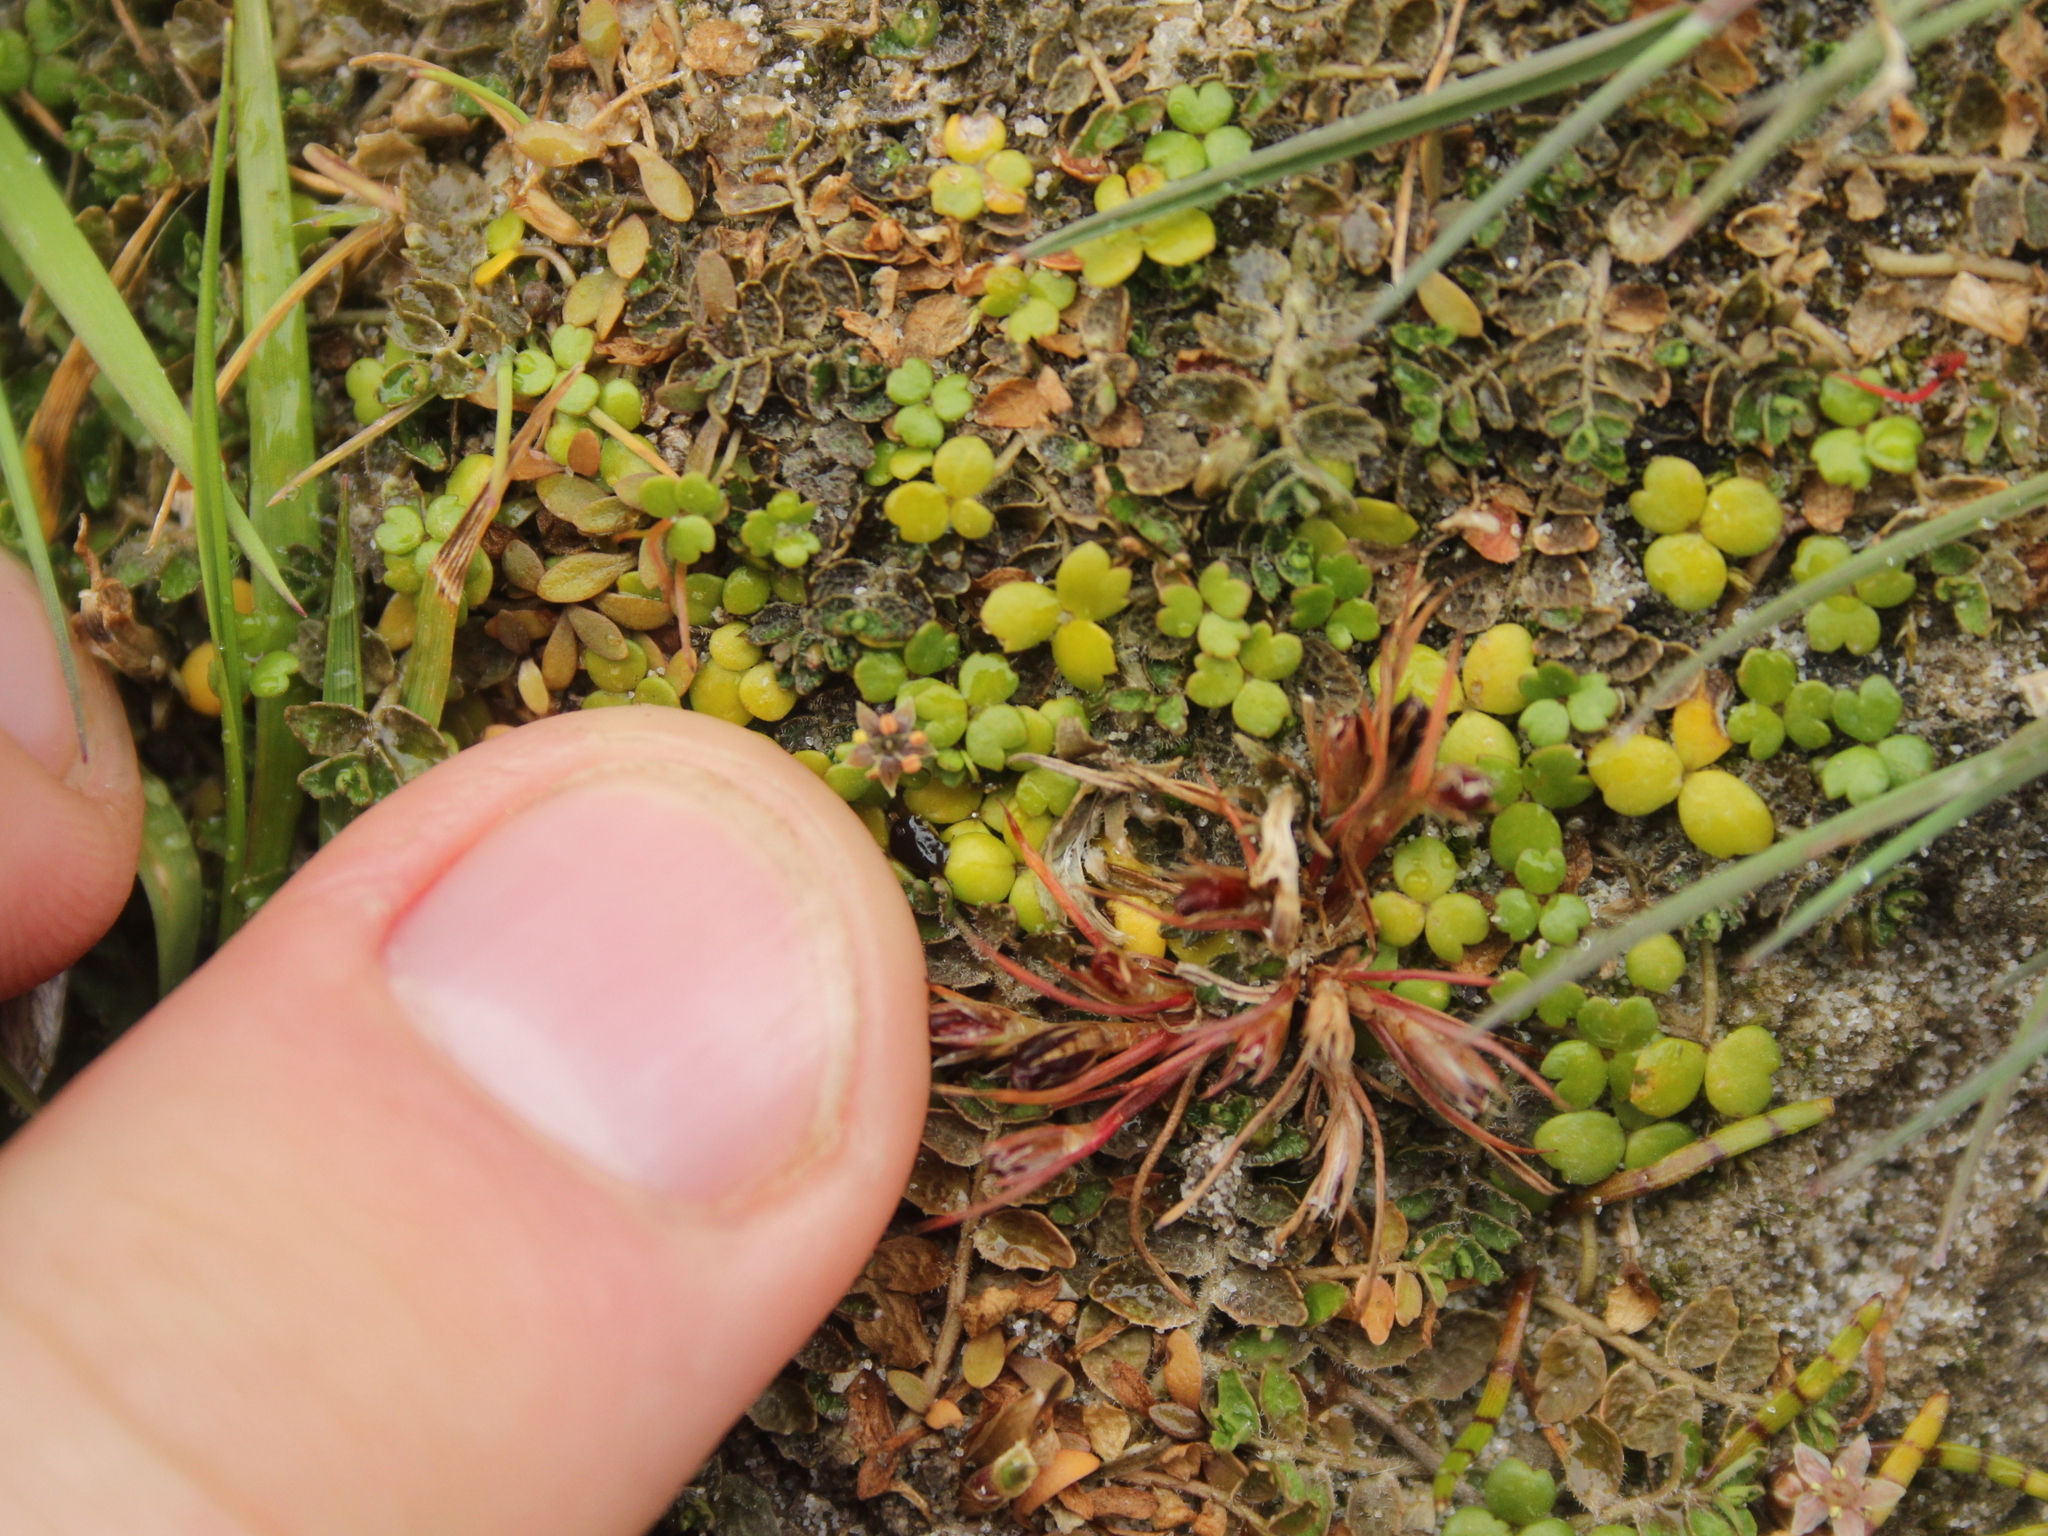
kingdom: Plantae
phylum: Tracheophyta
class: Magnoliopsida
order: Apiales
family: Araliaceae
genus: Hydrocotyle
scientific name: Hydrocotyle hydrophila
